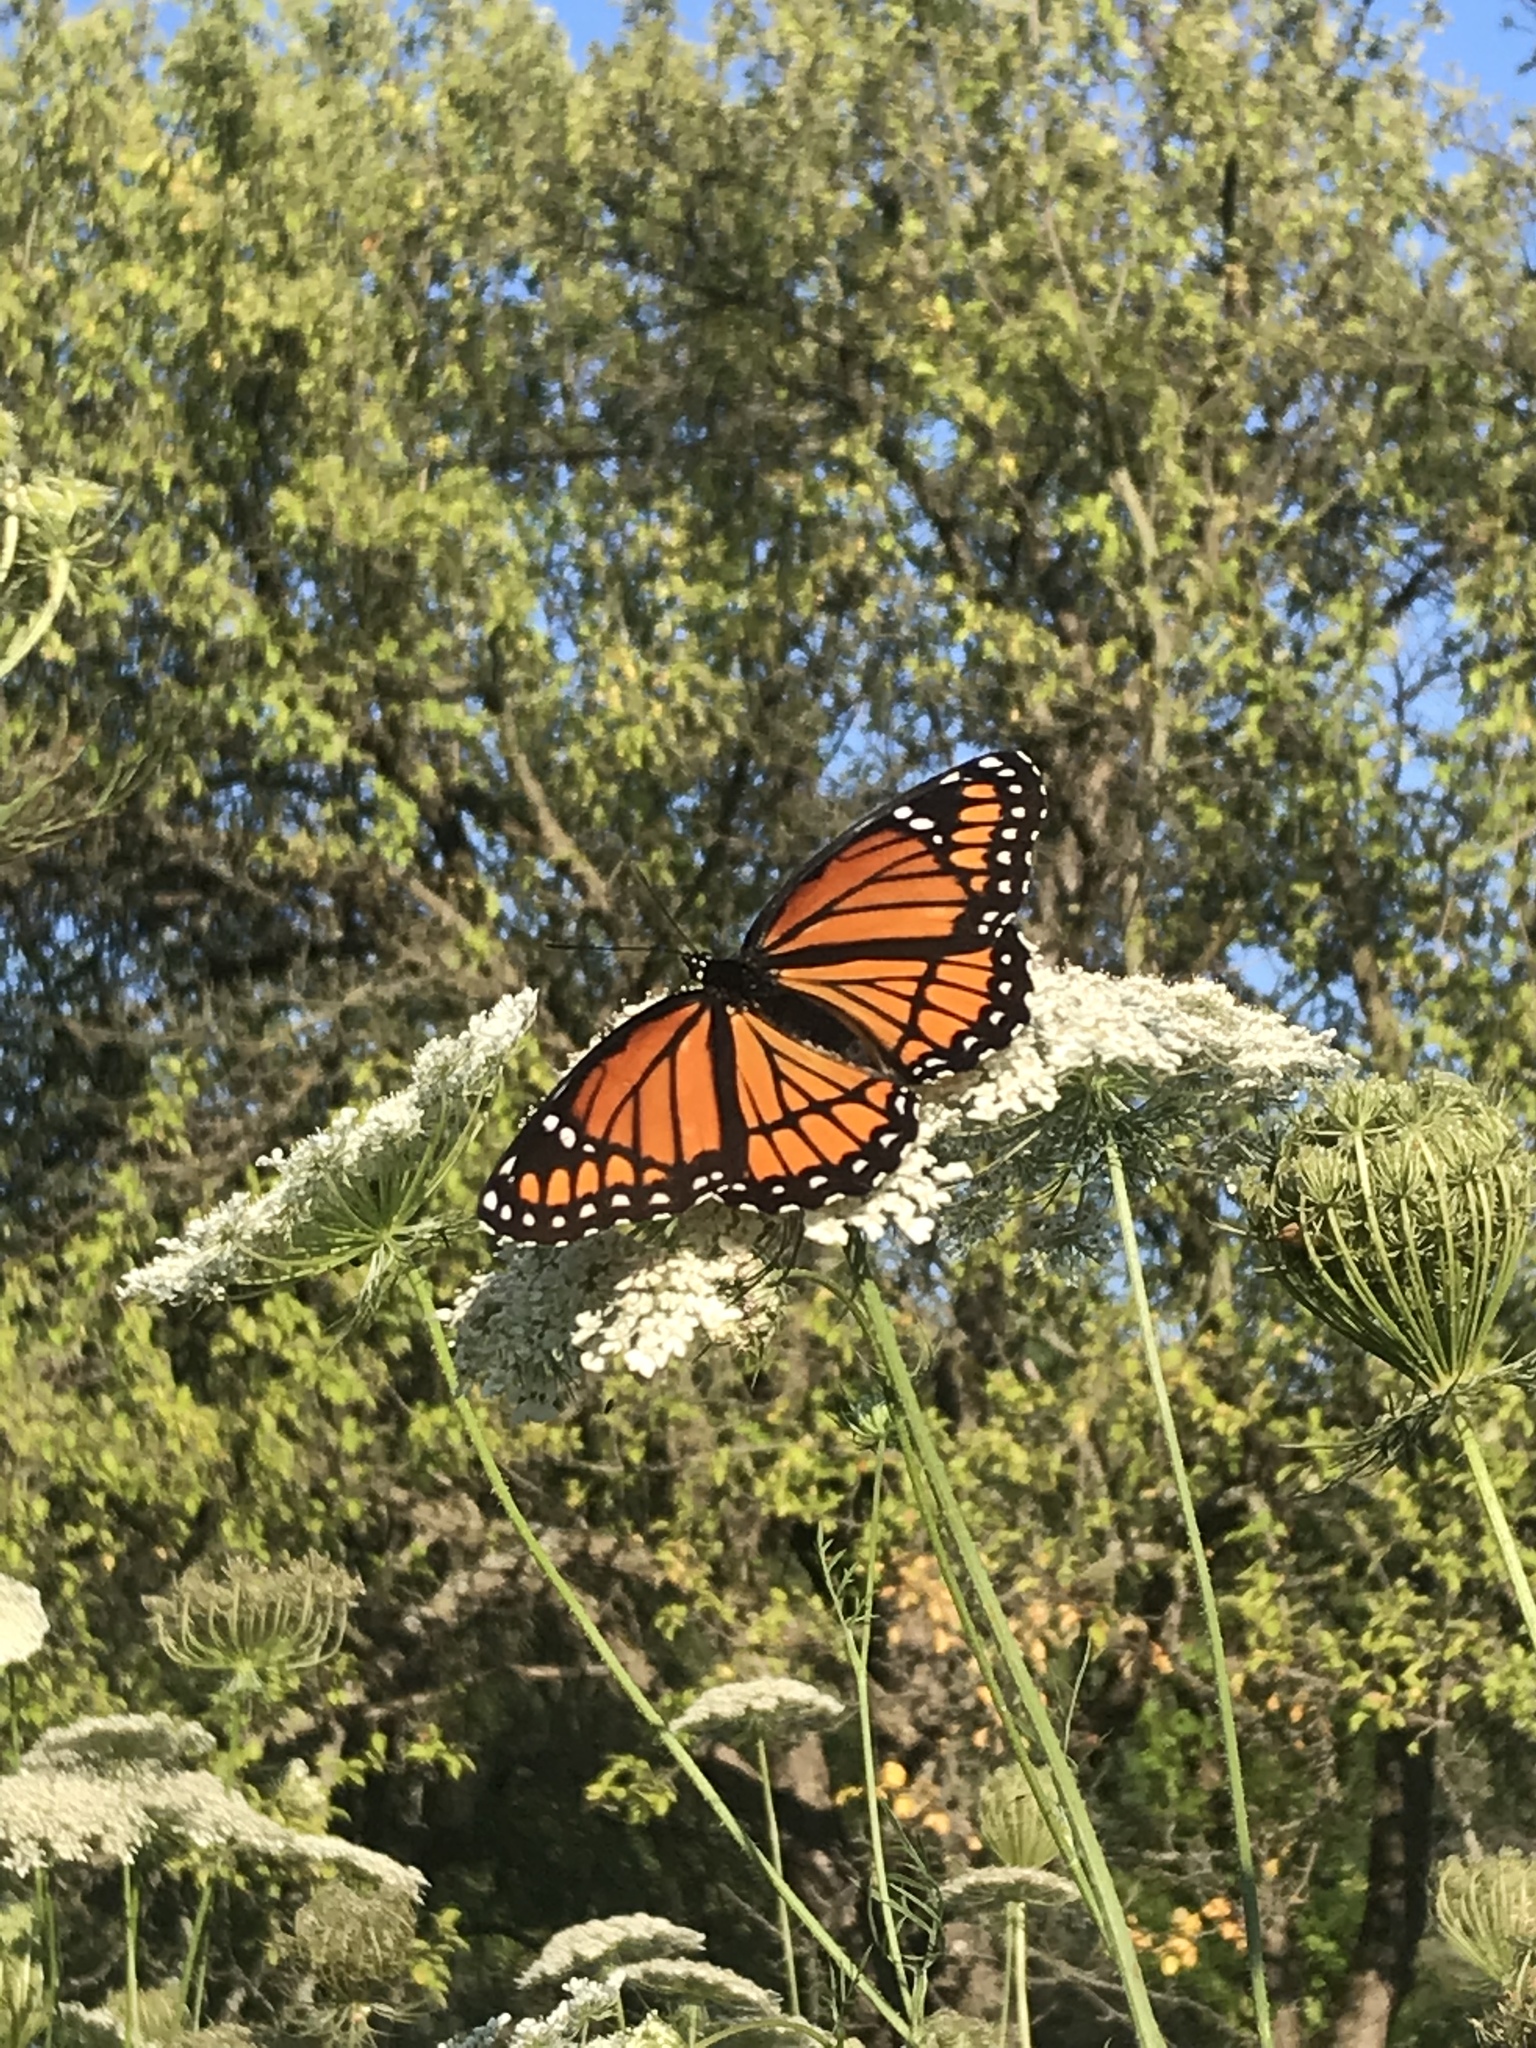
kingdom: Animalia
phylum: Arthropoda
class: Insecta
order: Lepidoptera
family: Nymphalidae
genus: Limenitis
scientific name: Limenitis archippus
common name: Viceroy
